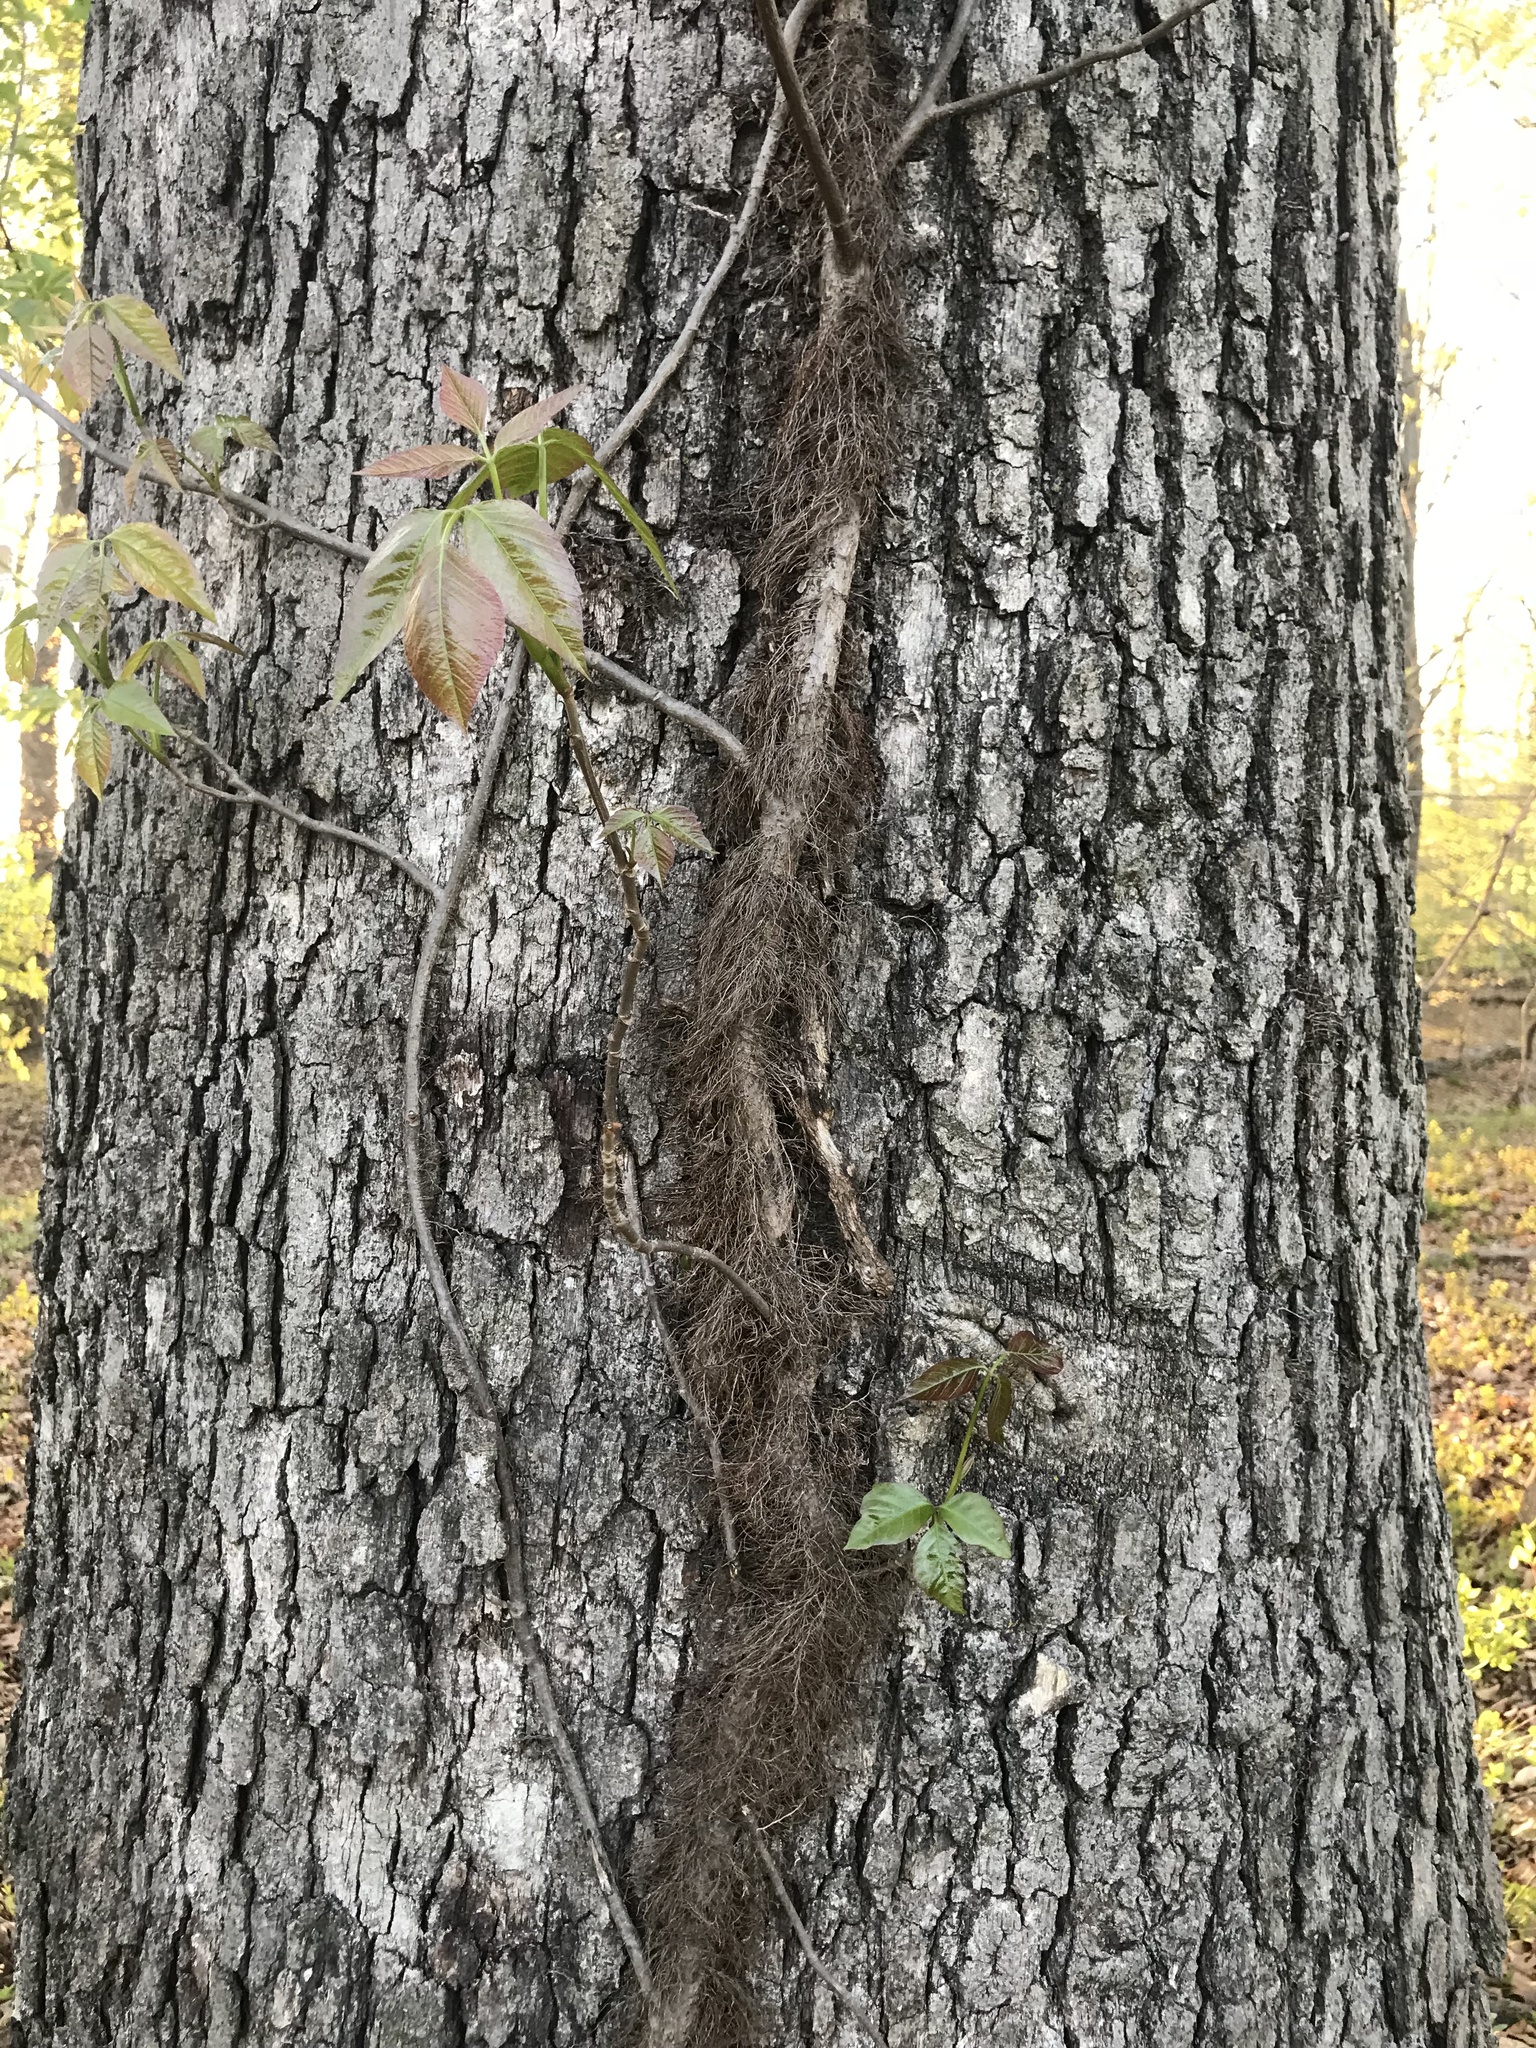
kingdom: Plantae
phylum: Tracheophyta
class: Magnoliopsida
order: Sapindales
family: Anacardiaceae
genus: Toxicodendron
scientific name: Toxicodendron radicans
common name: Poison ivy
